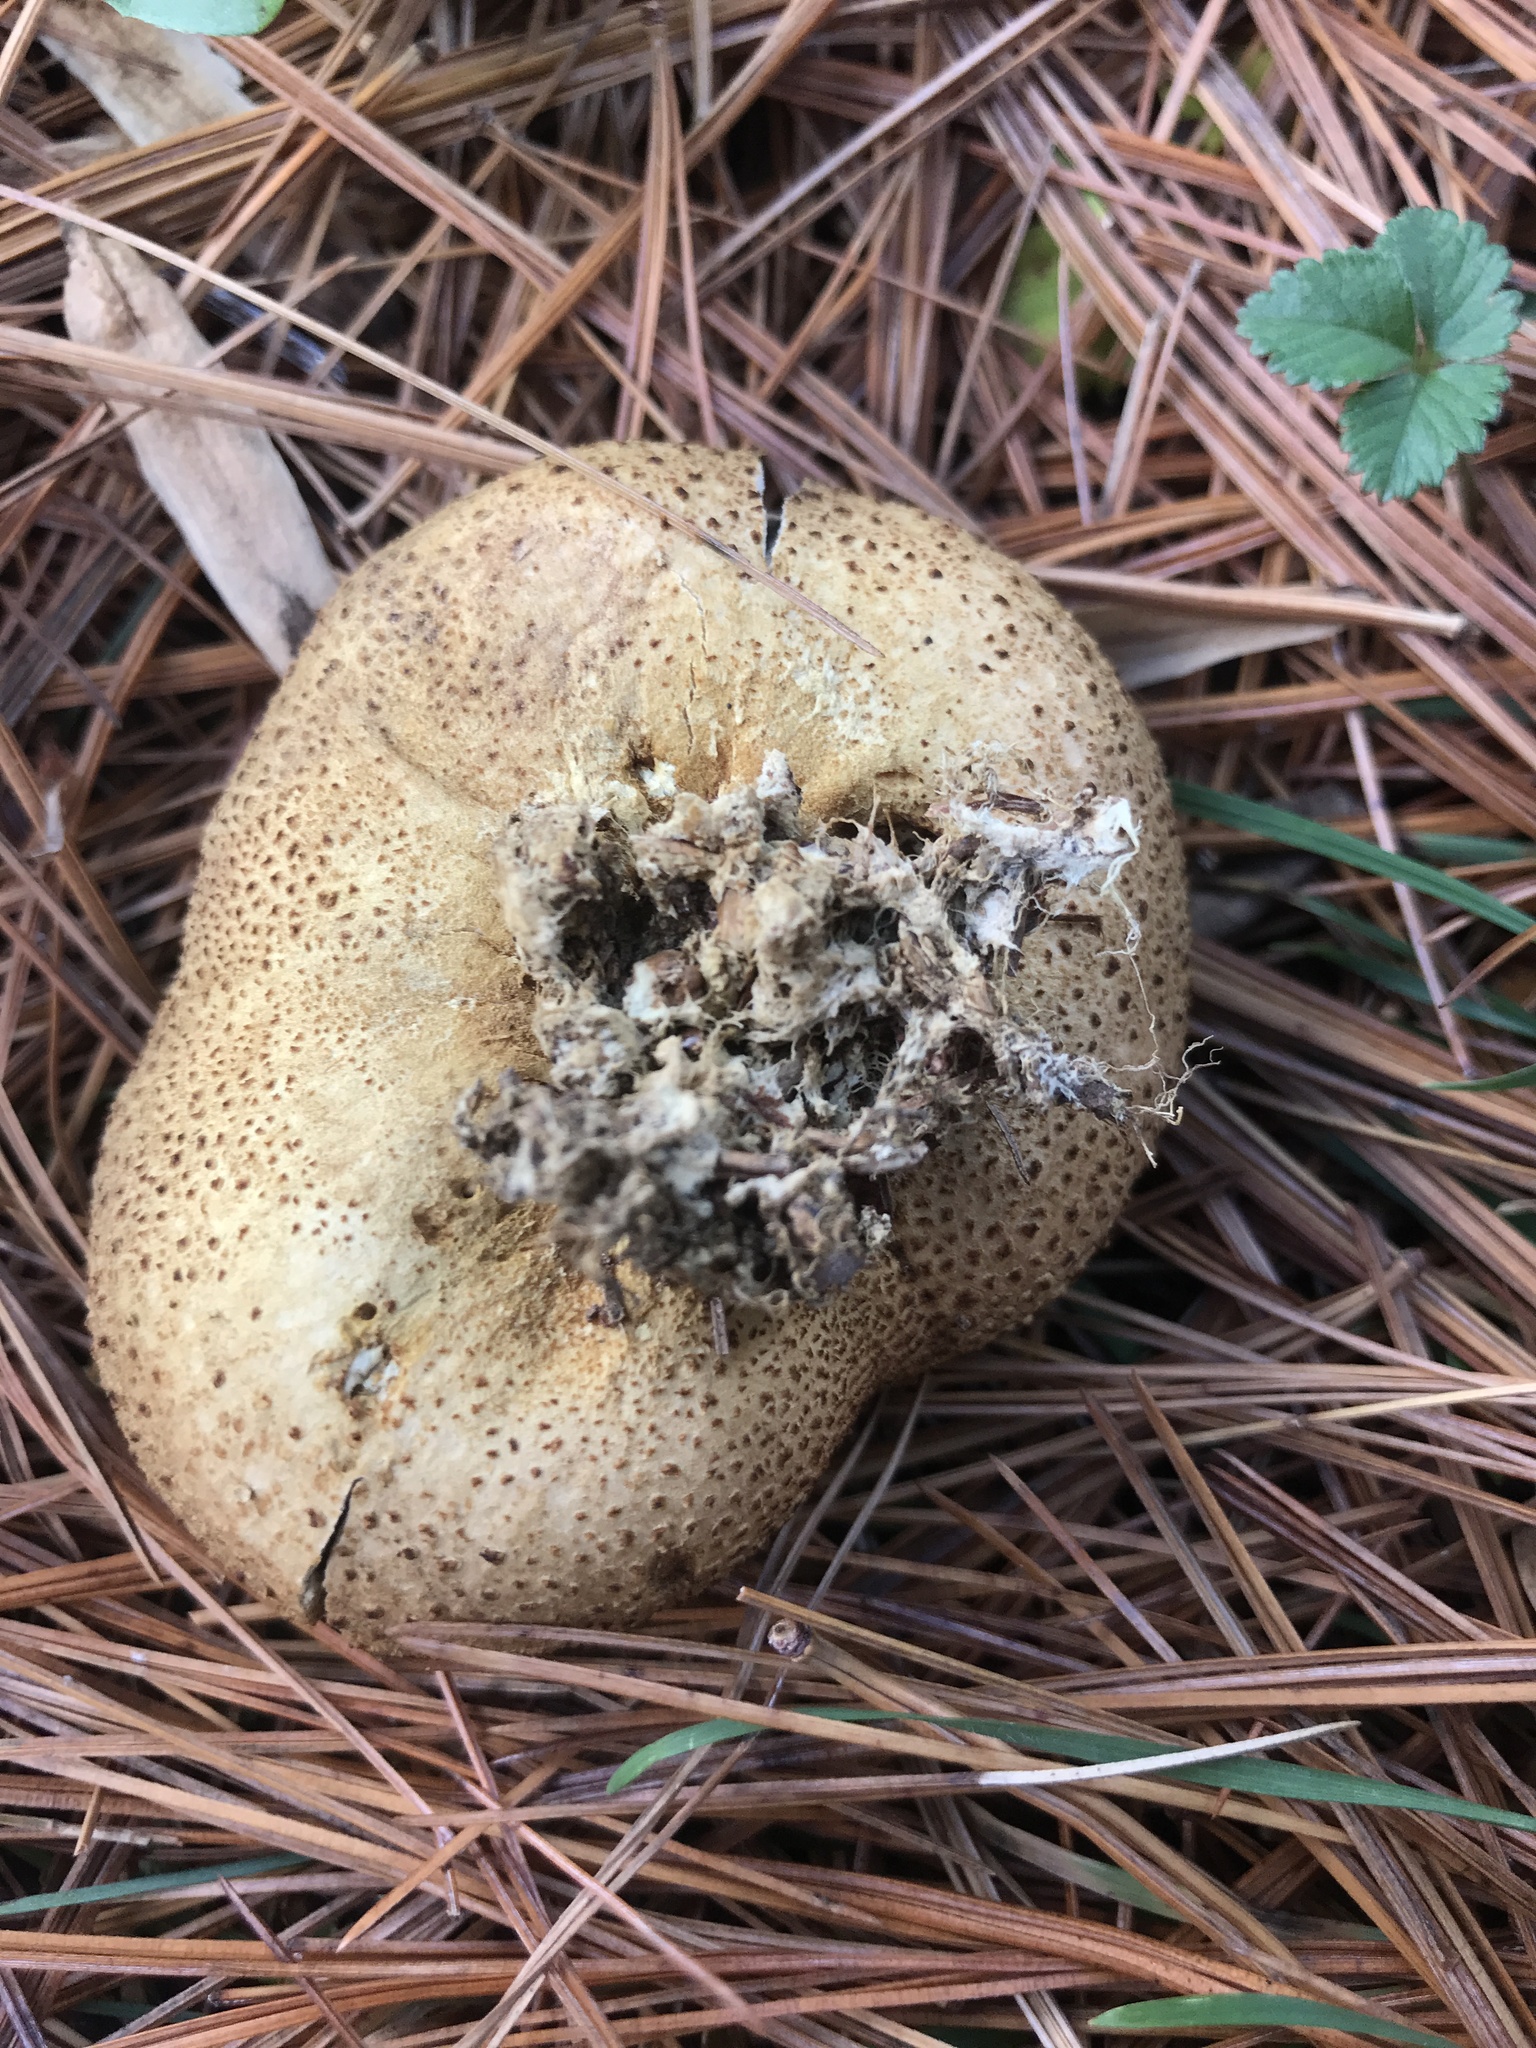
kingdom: Fungi
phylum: Basidiomycota
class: Agaricomycetes
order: Boletales
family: Sclerodermataceae
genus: Scleroderma
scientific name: Scleroderma citrinum
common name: Common earthball
